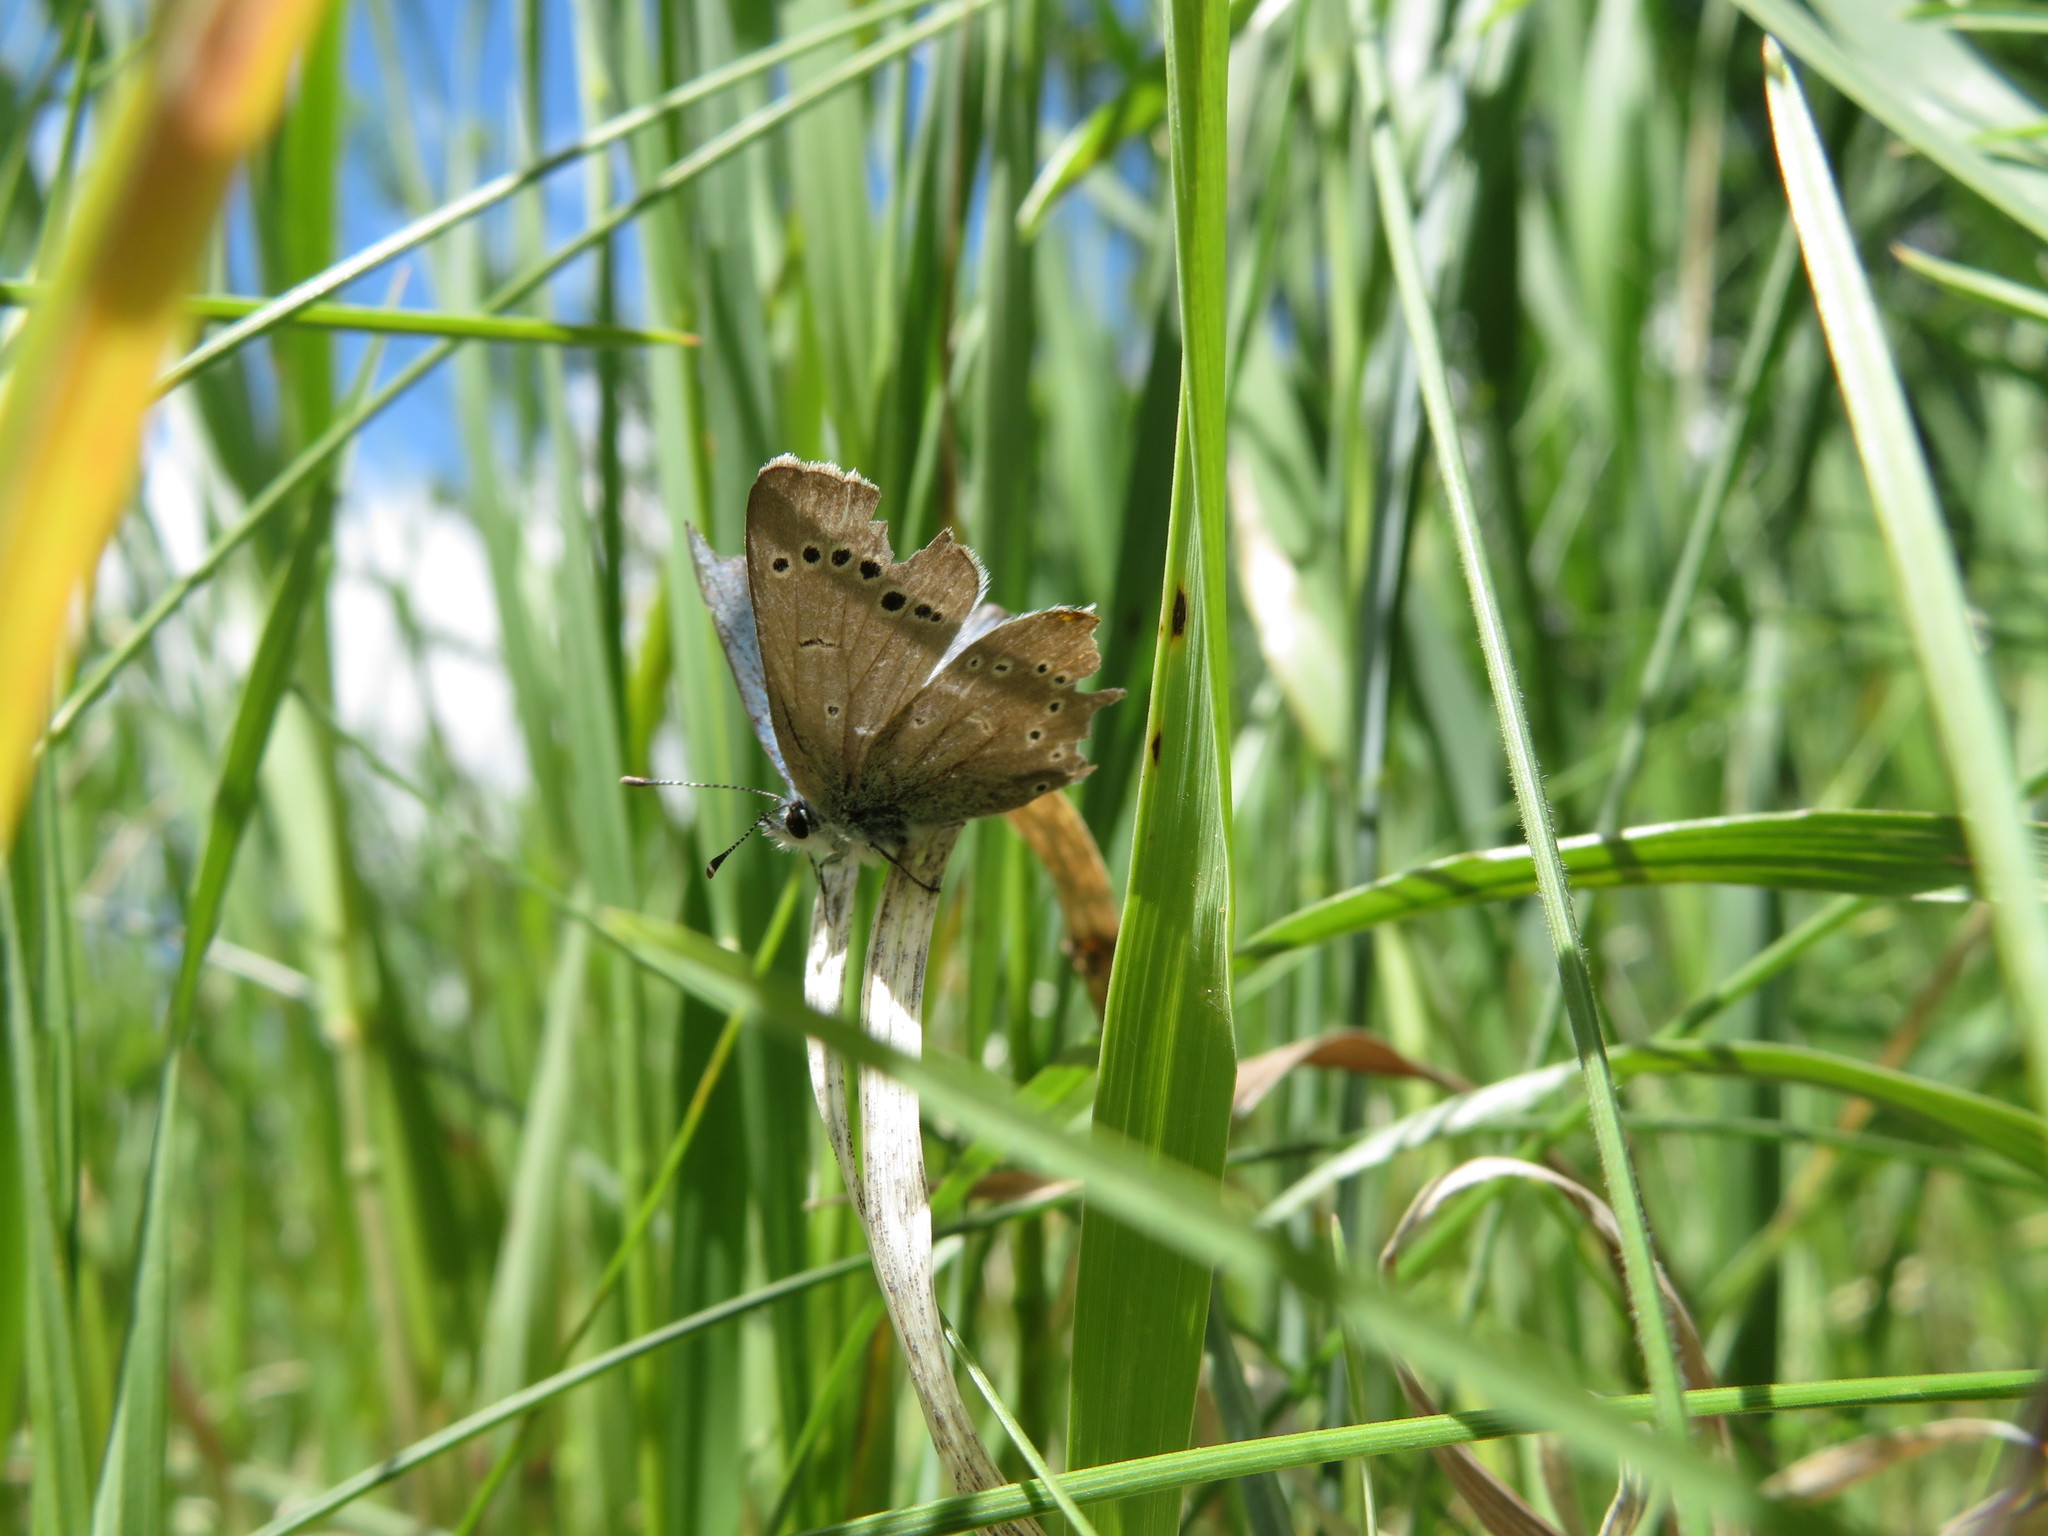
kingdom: Animalia
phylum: Arthropoda
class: Insecta
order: Lepidoptera
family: Lycaenidae
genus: Glaucopsyche
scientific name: Glaucopsyche lygdamus
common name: Silvery blue
